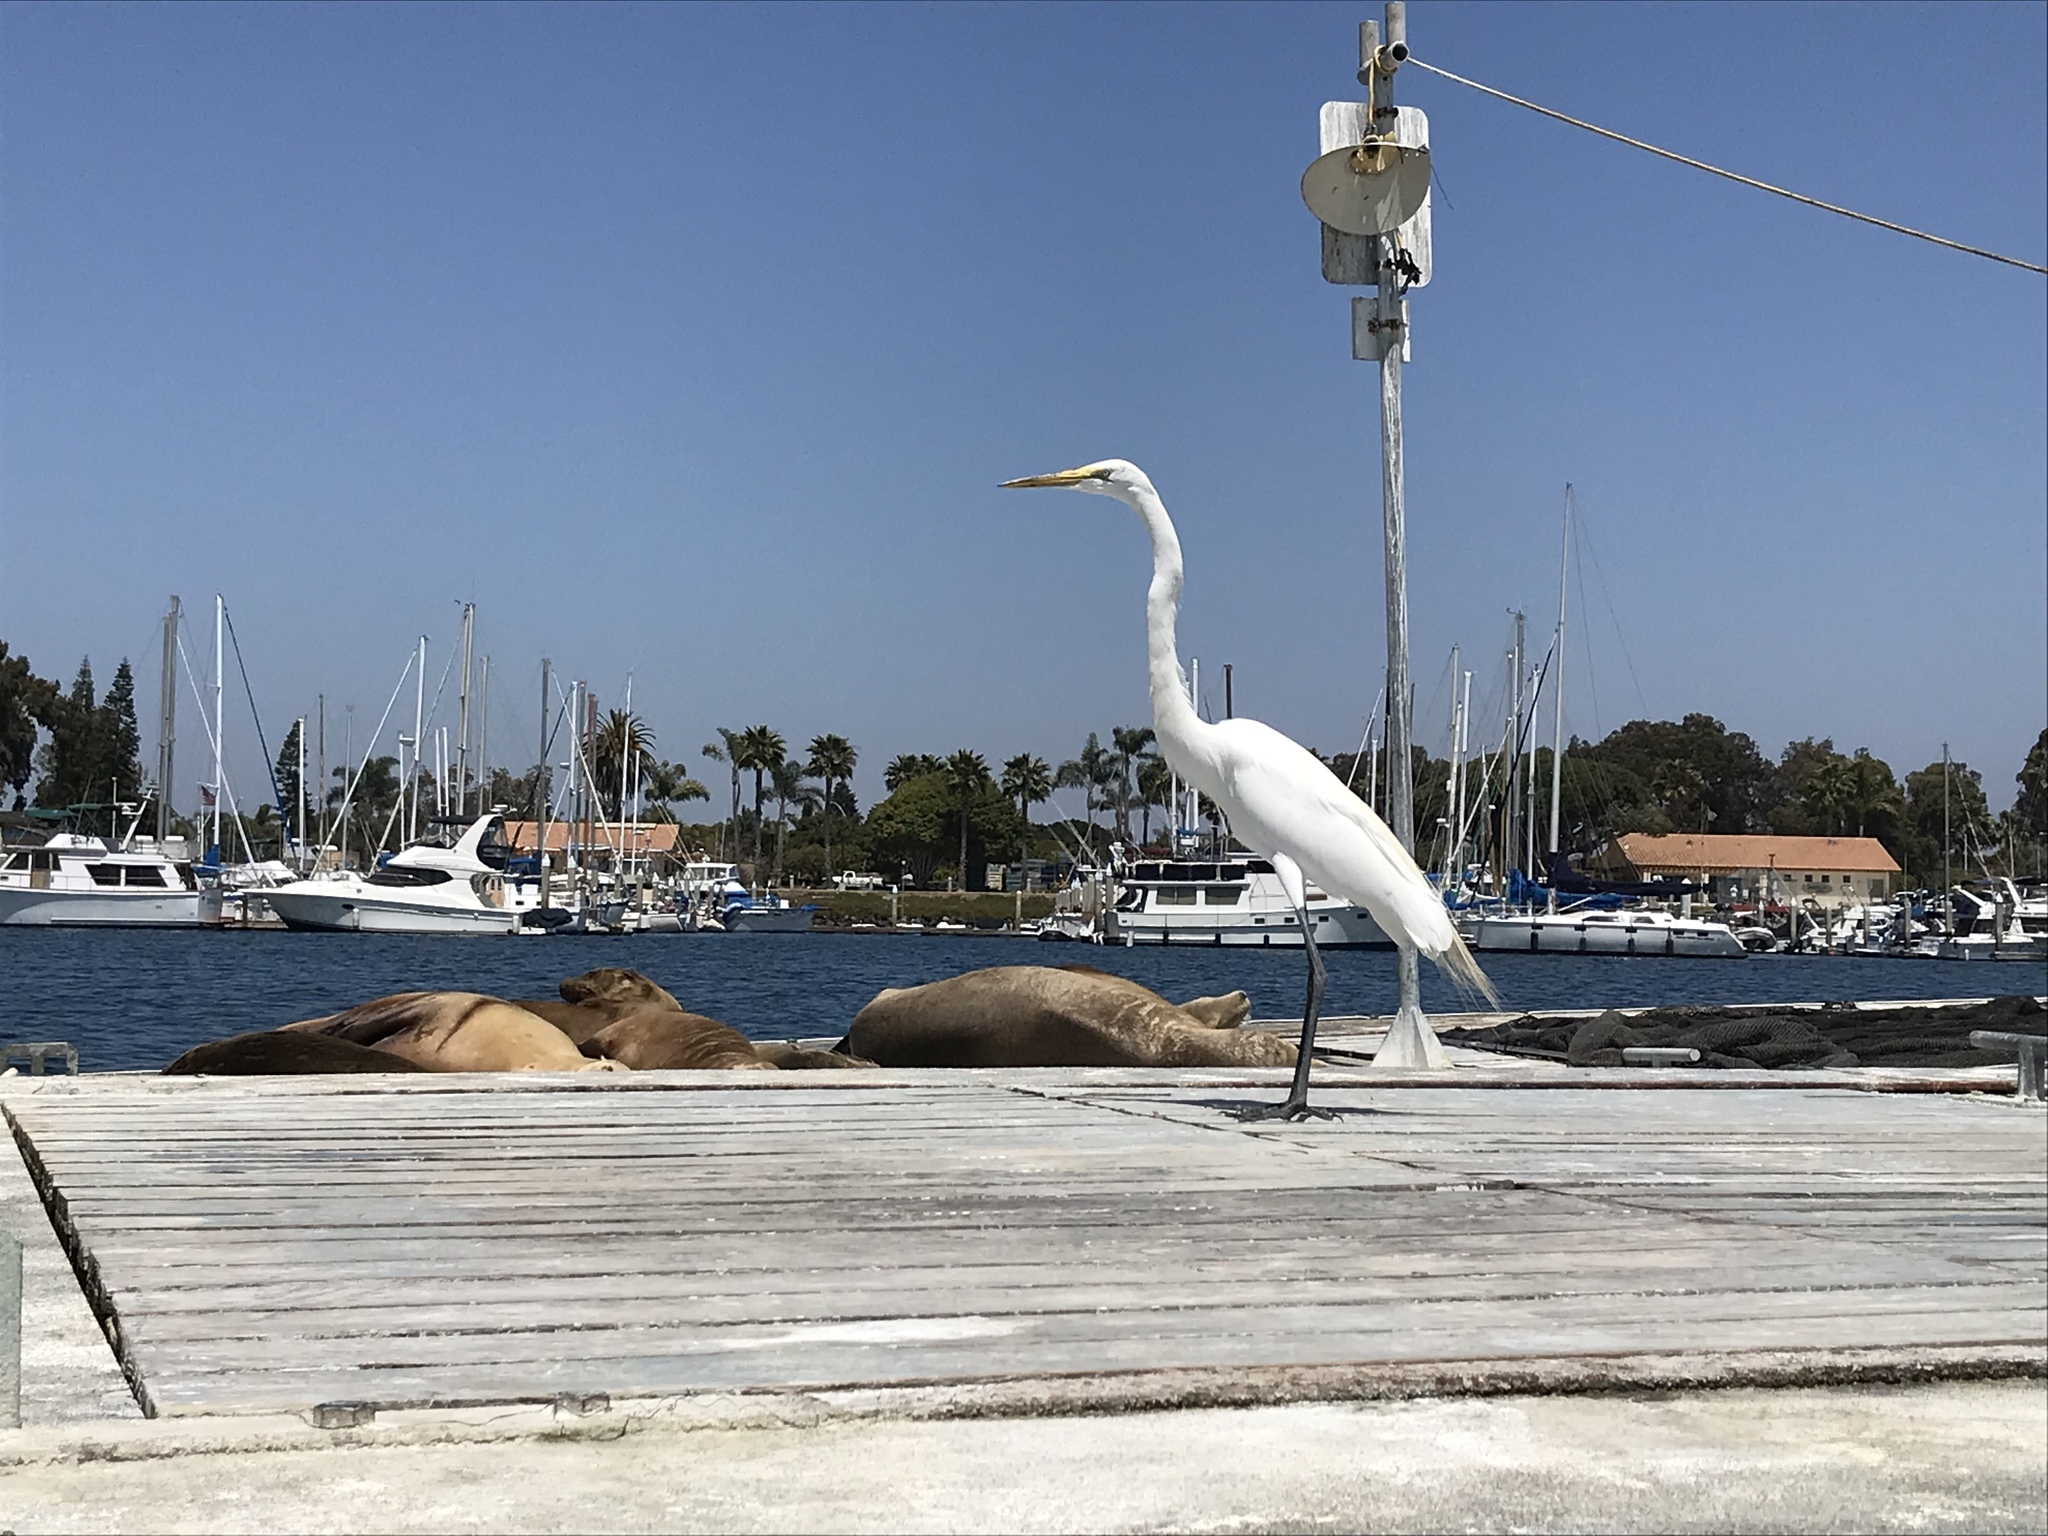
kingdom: Animalia
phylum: Chordata
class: Aves
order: Pelecaniformes
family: Ardeidae
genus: Ardea
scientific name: Ardea alba
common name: Great egret
